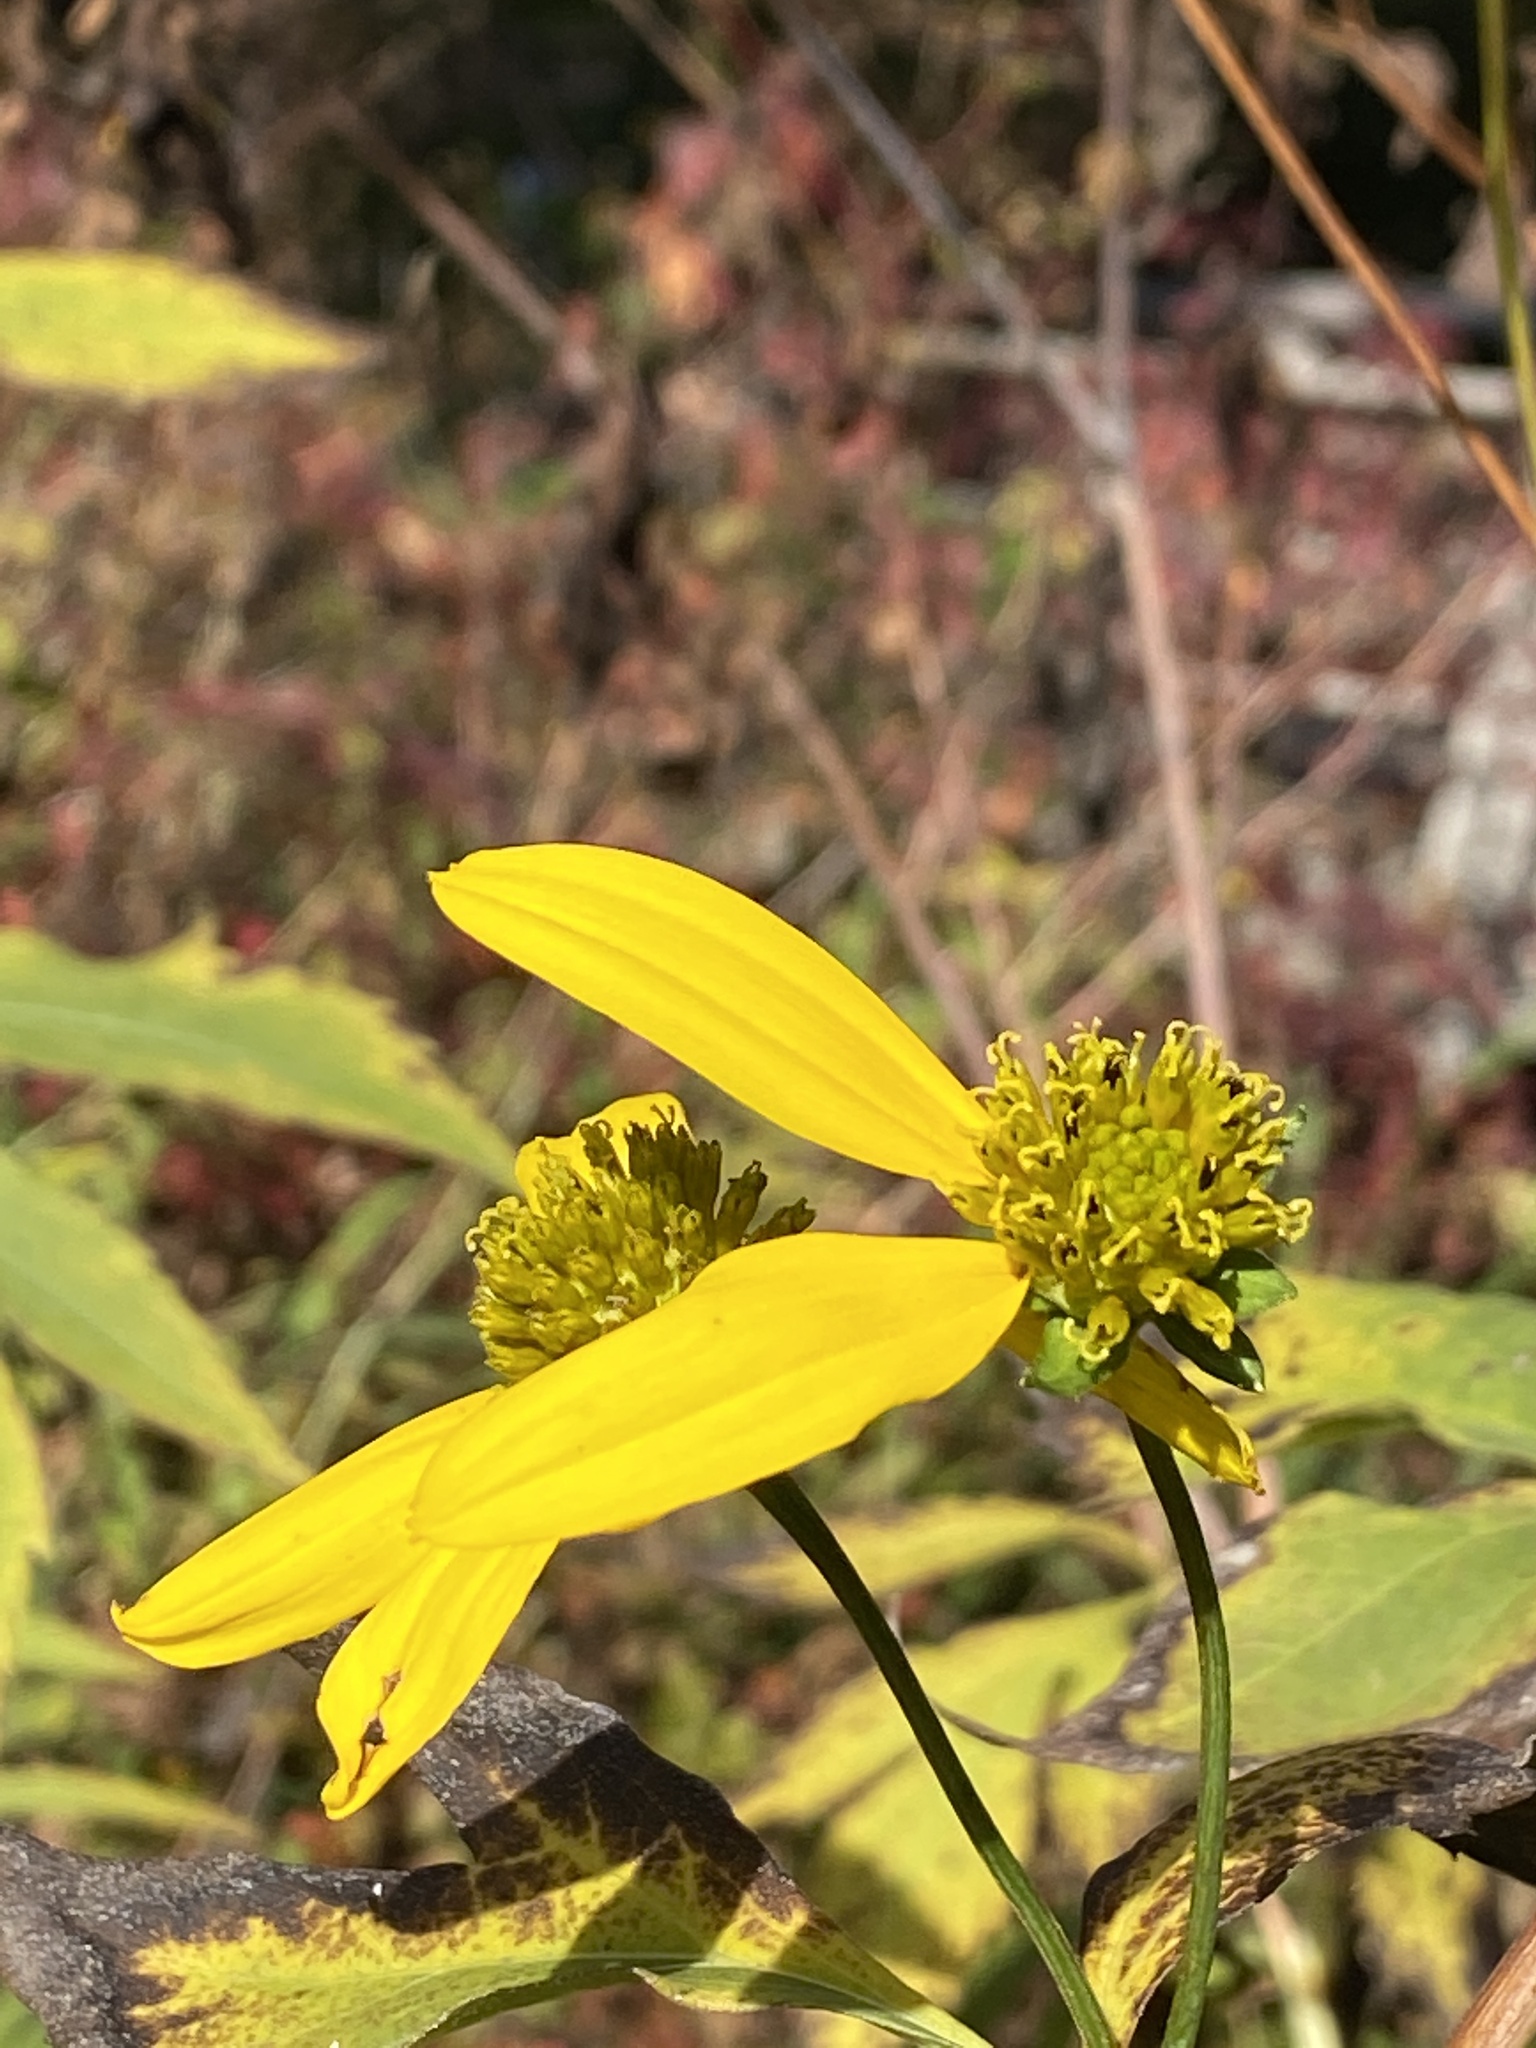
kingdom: Plantae
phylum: Tracheophyta
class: Magnoliopsida
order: Asterales
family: Asteraceae
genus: Rudbeckia
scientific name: Rudbeckia laciniata
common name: Coneflower
